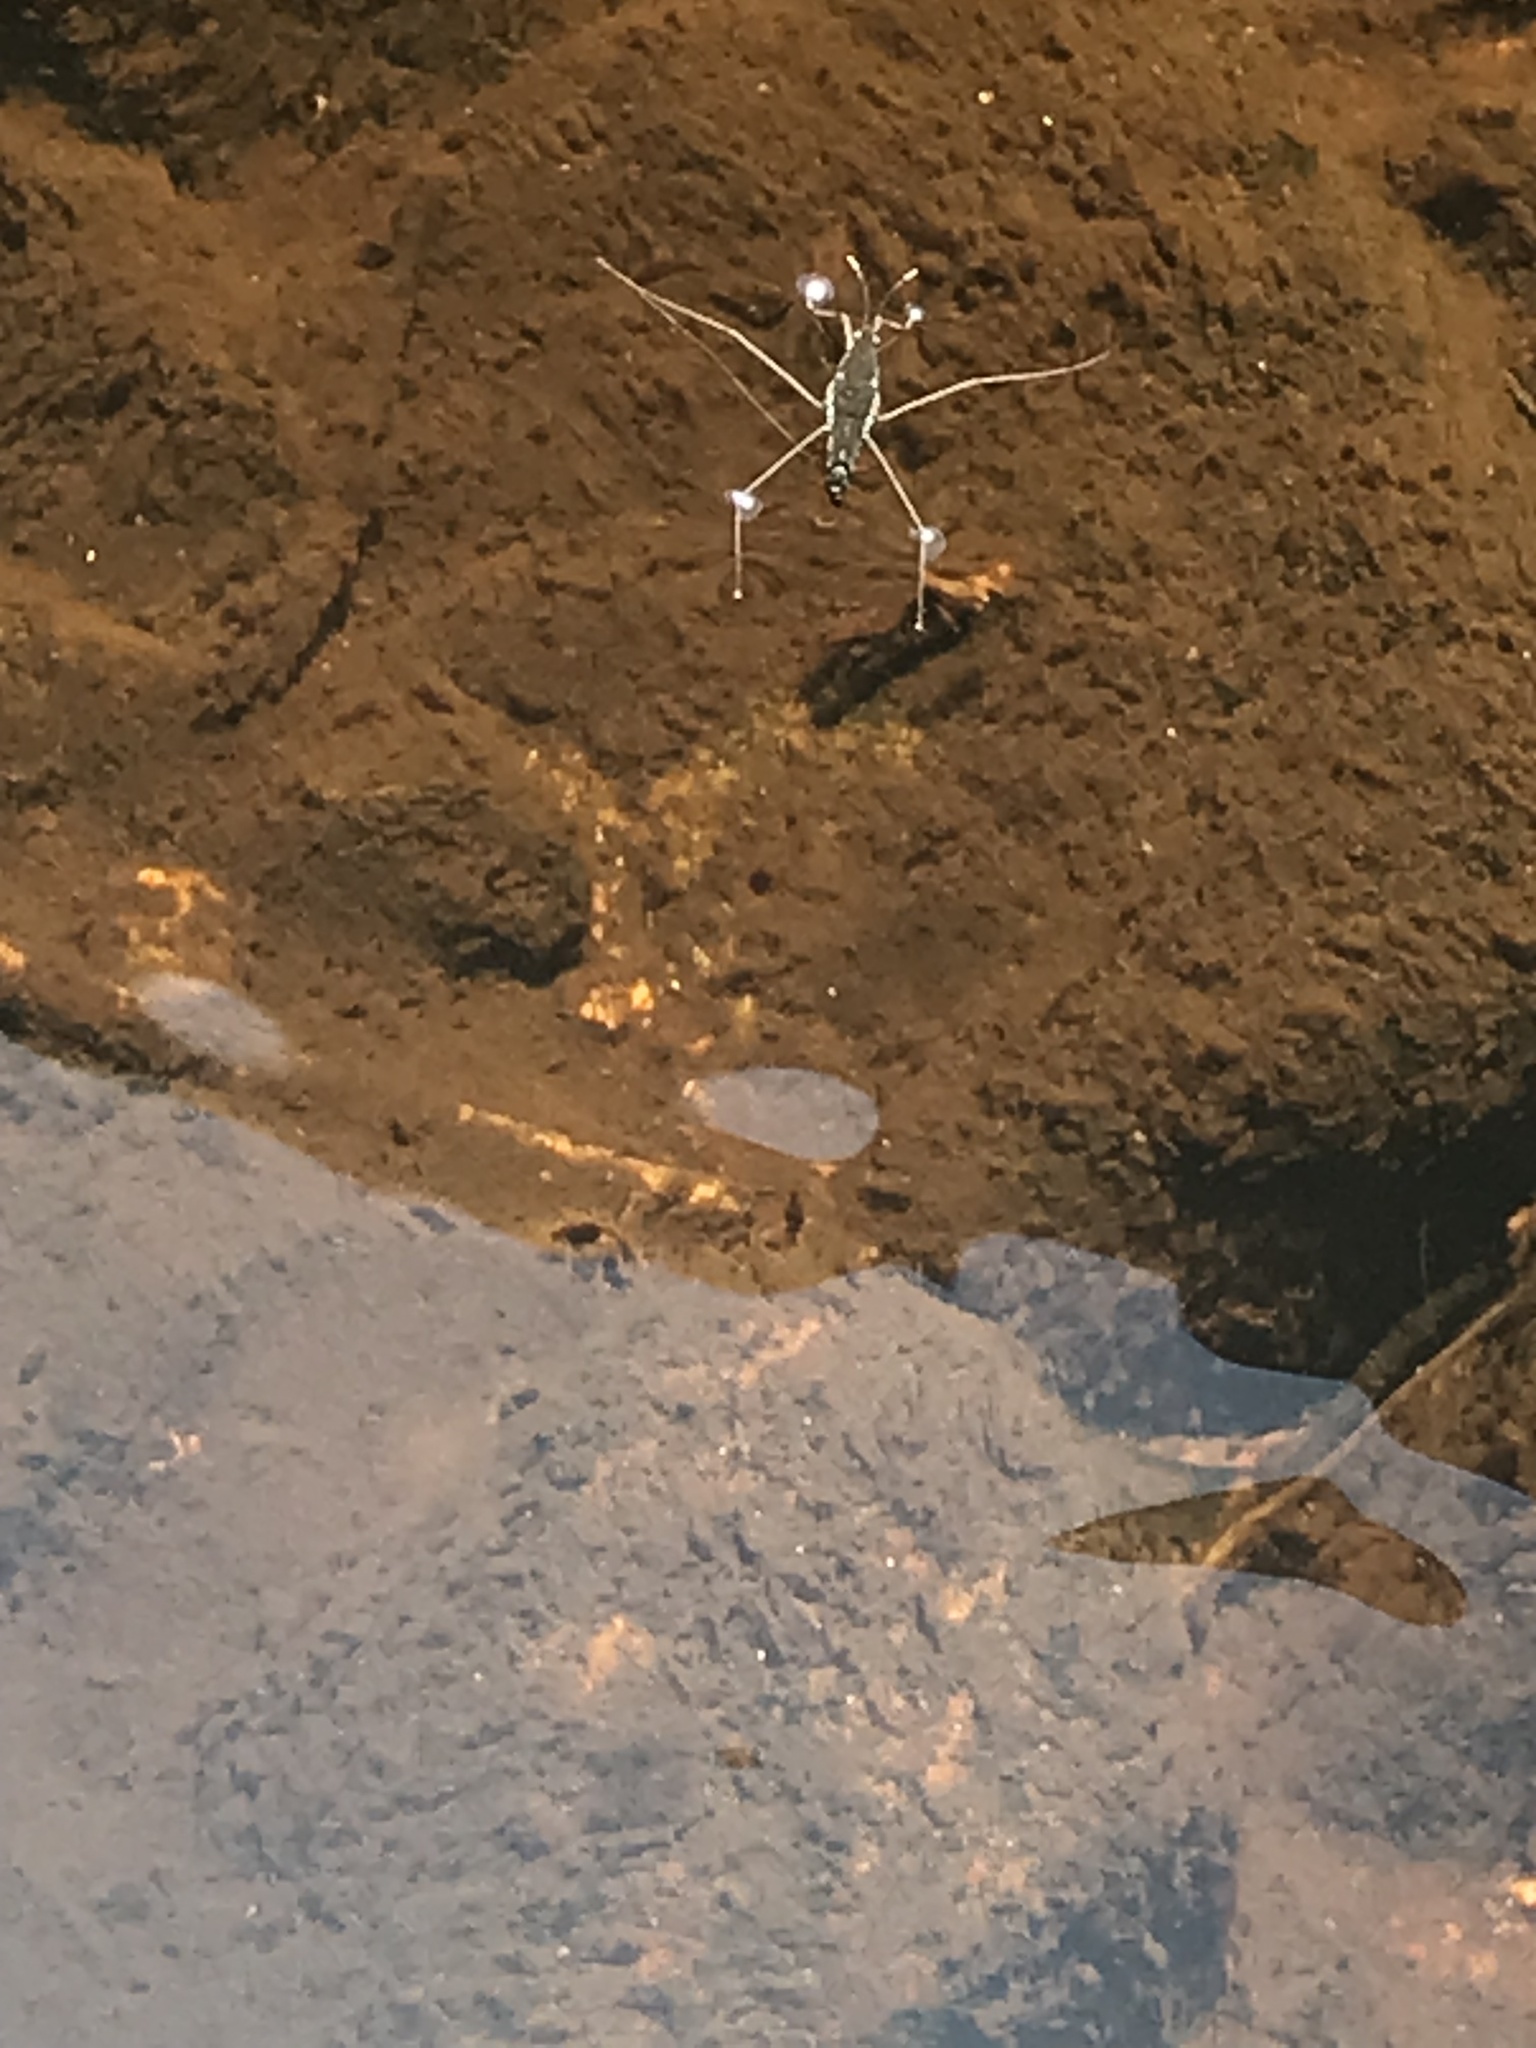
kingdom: Animalia
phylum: Arthropoda
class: Insecta
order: Hemiptera
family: Gerridae
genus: Aquarius
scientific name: Aquarius remigis
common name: Common water strider
